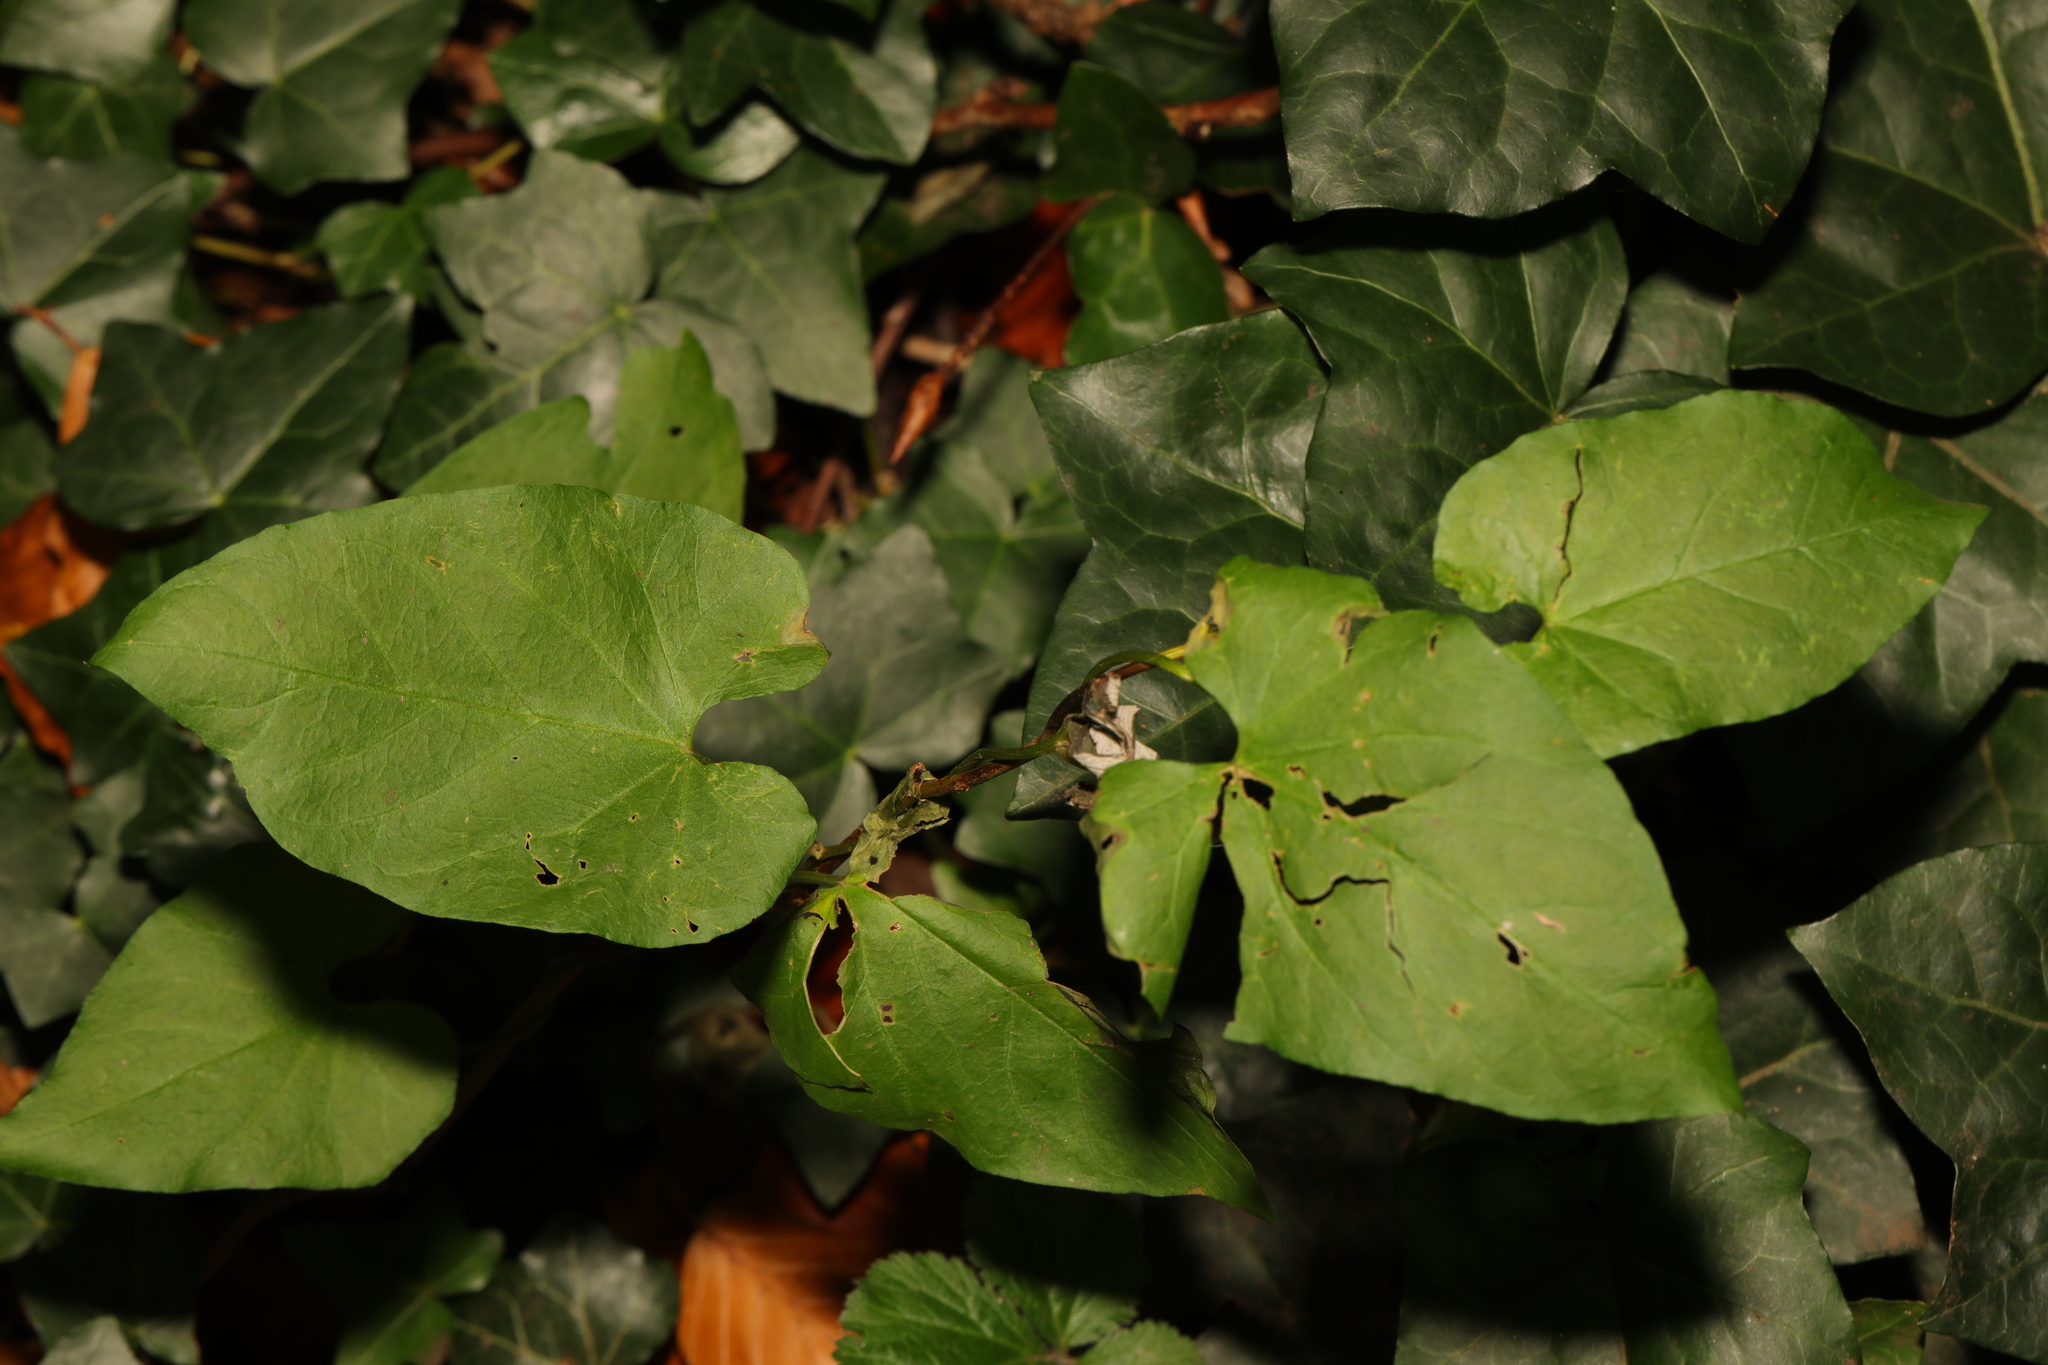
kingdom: Plantae
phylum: Tracheophyta
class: Magnoliopsida
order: Solanales
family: Convolvulaceae
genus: Calystegia
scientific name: Calystegia silvatica
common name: Large bindweed
